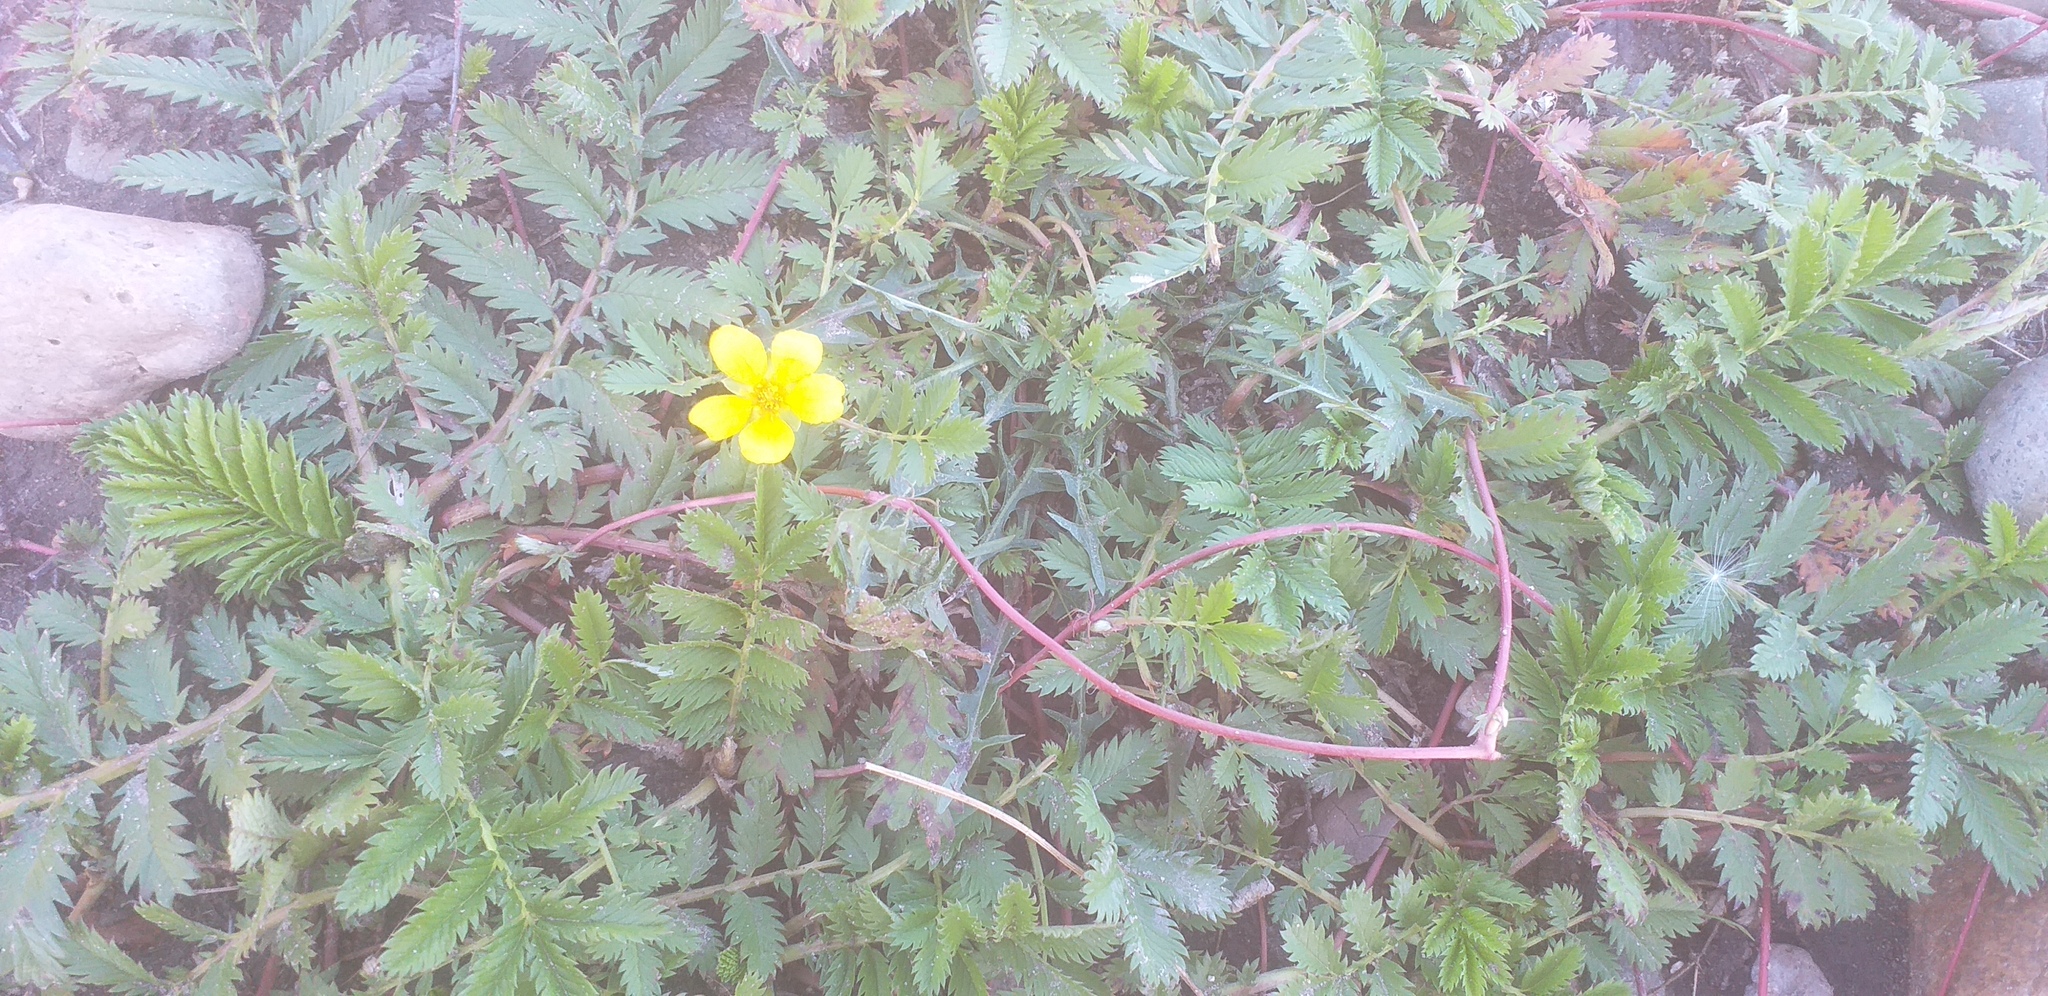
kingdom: Plantae
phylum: Tracheophyta
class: Magnoliopsida
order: Rosales
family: Rosaceae
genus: Argentina
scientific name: Argentina anserina
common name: Common silverweed
